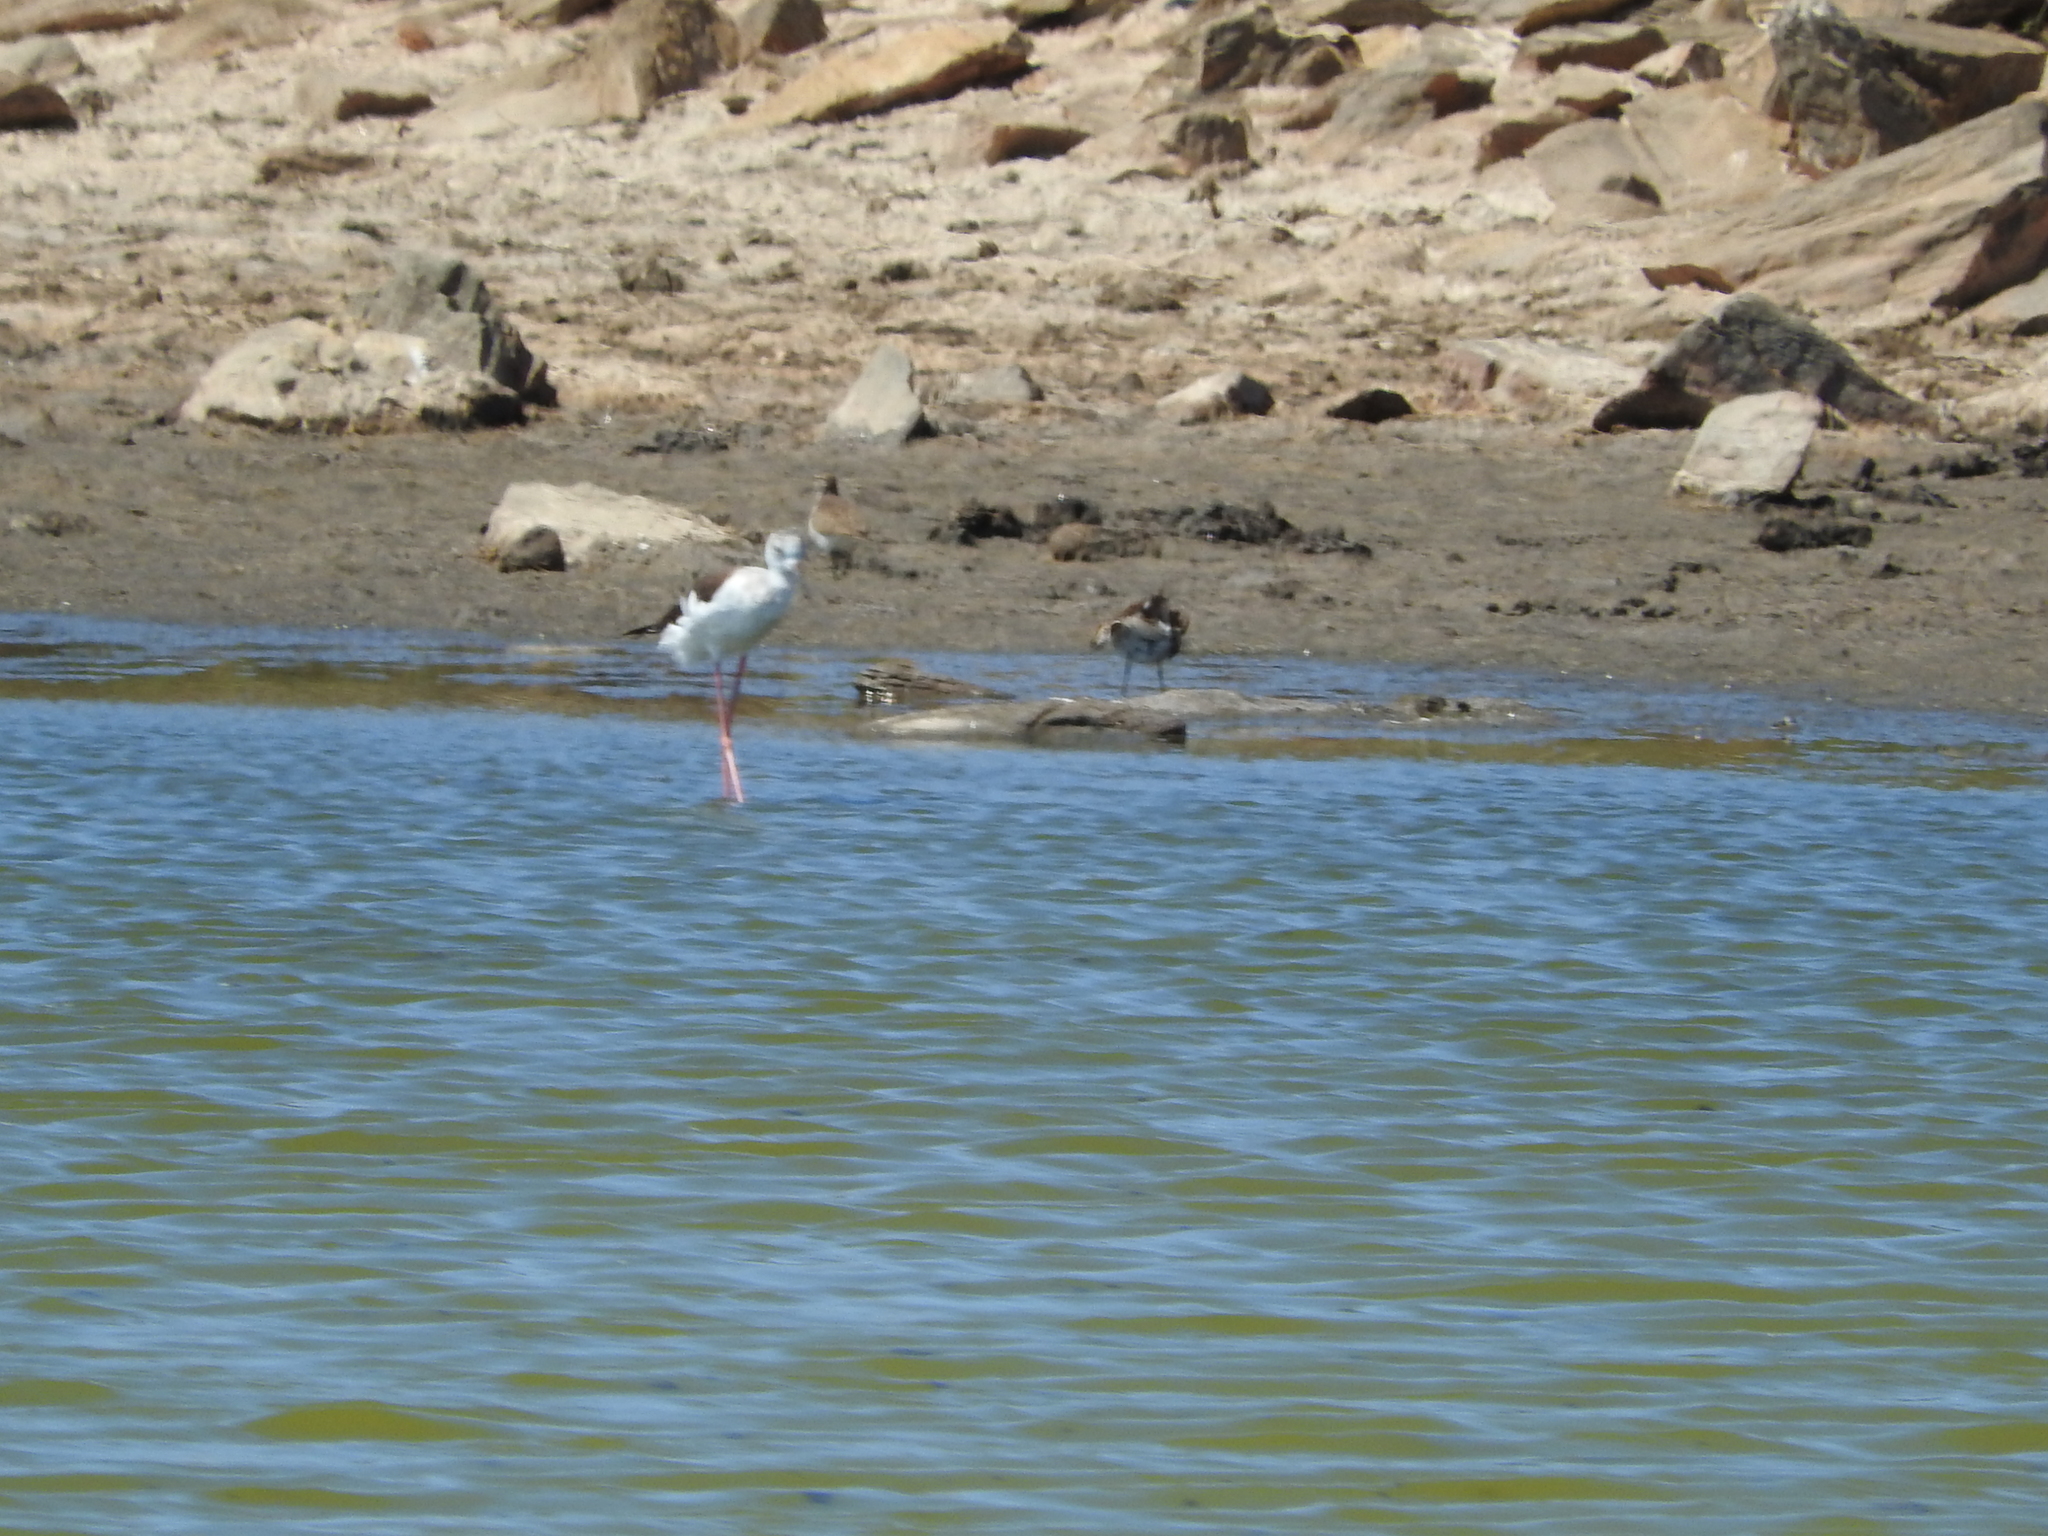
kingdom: Animalia
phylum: Chordata
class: Aves
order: Charadriiformes
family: Recurvirostridae
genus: Himantopus
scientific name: Himantopus himantopus
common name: Black-winged stilt
